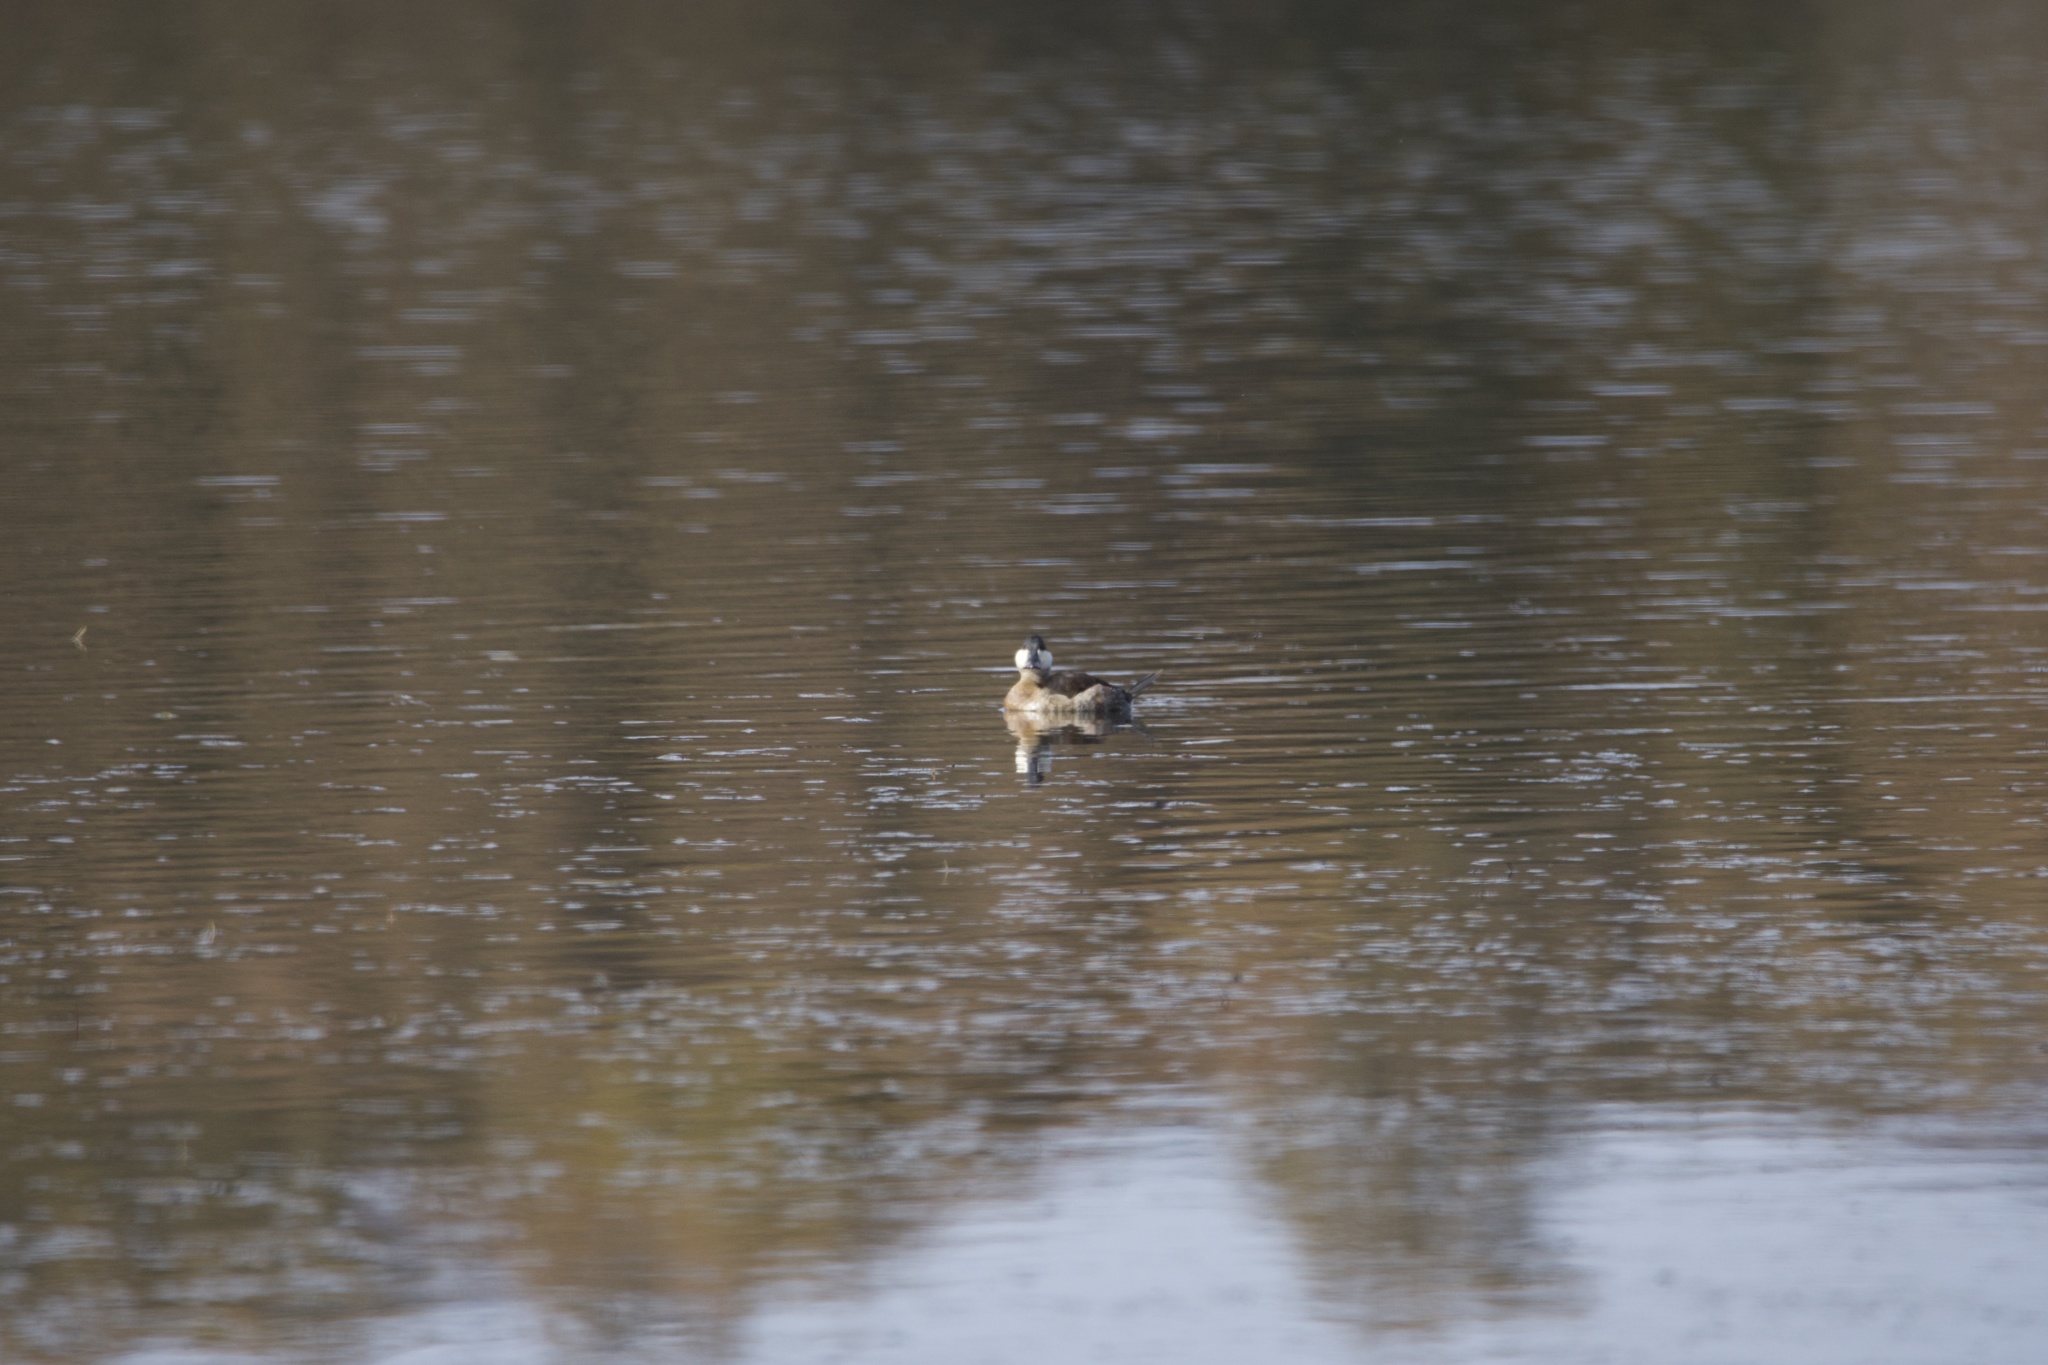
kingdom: Animalia
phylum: Chordata
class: Aves
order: Anseriformes
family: Anatidae
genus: Oxyura
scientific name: Oxyura jamaicensis
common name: Ruddy duck
